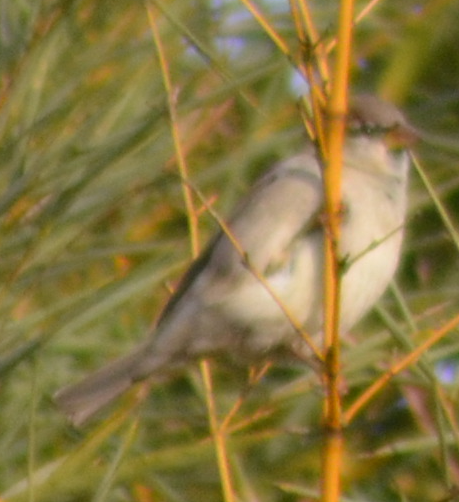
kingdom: Animalia
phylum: Chordata
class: Aves
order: Passeriformes
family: Passeridae
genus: Passer
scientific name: Passer domesticus
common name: House sparrow
